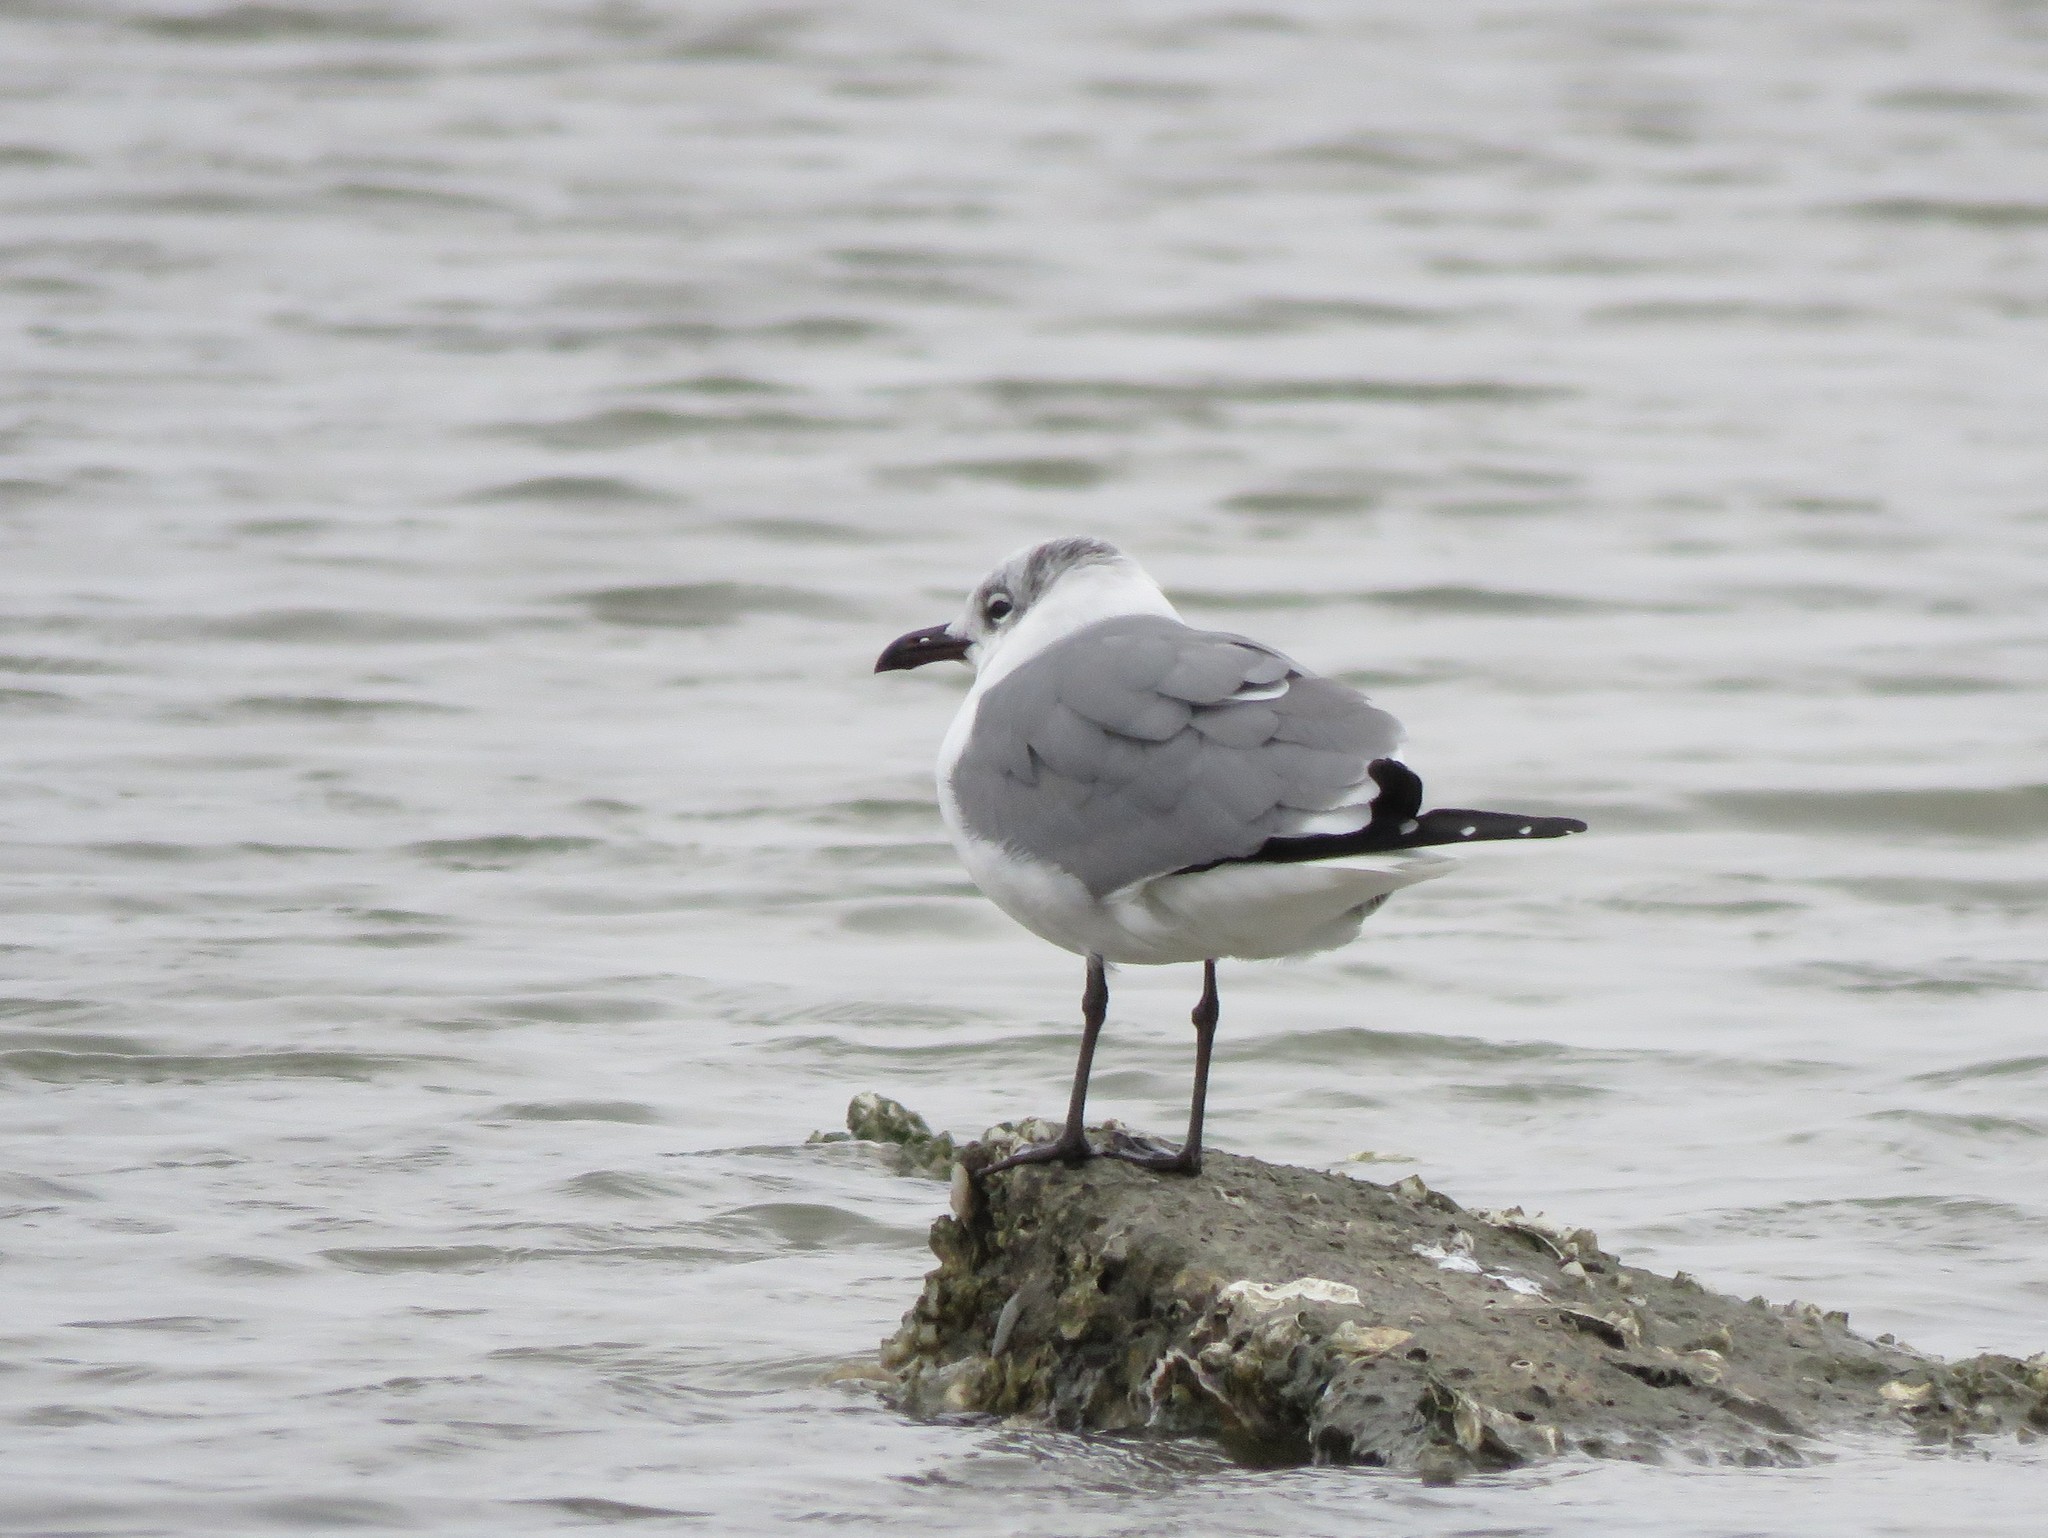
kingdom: Animalia
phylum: Chordata
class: Aves
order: Charadriiformes
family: Laridae
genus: Leucophaeus
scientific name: Leucophaeus atricilla
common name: Laughing gull
